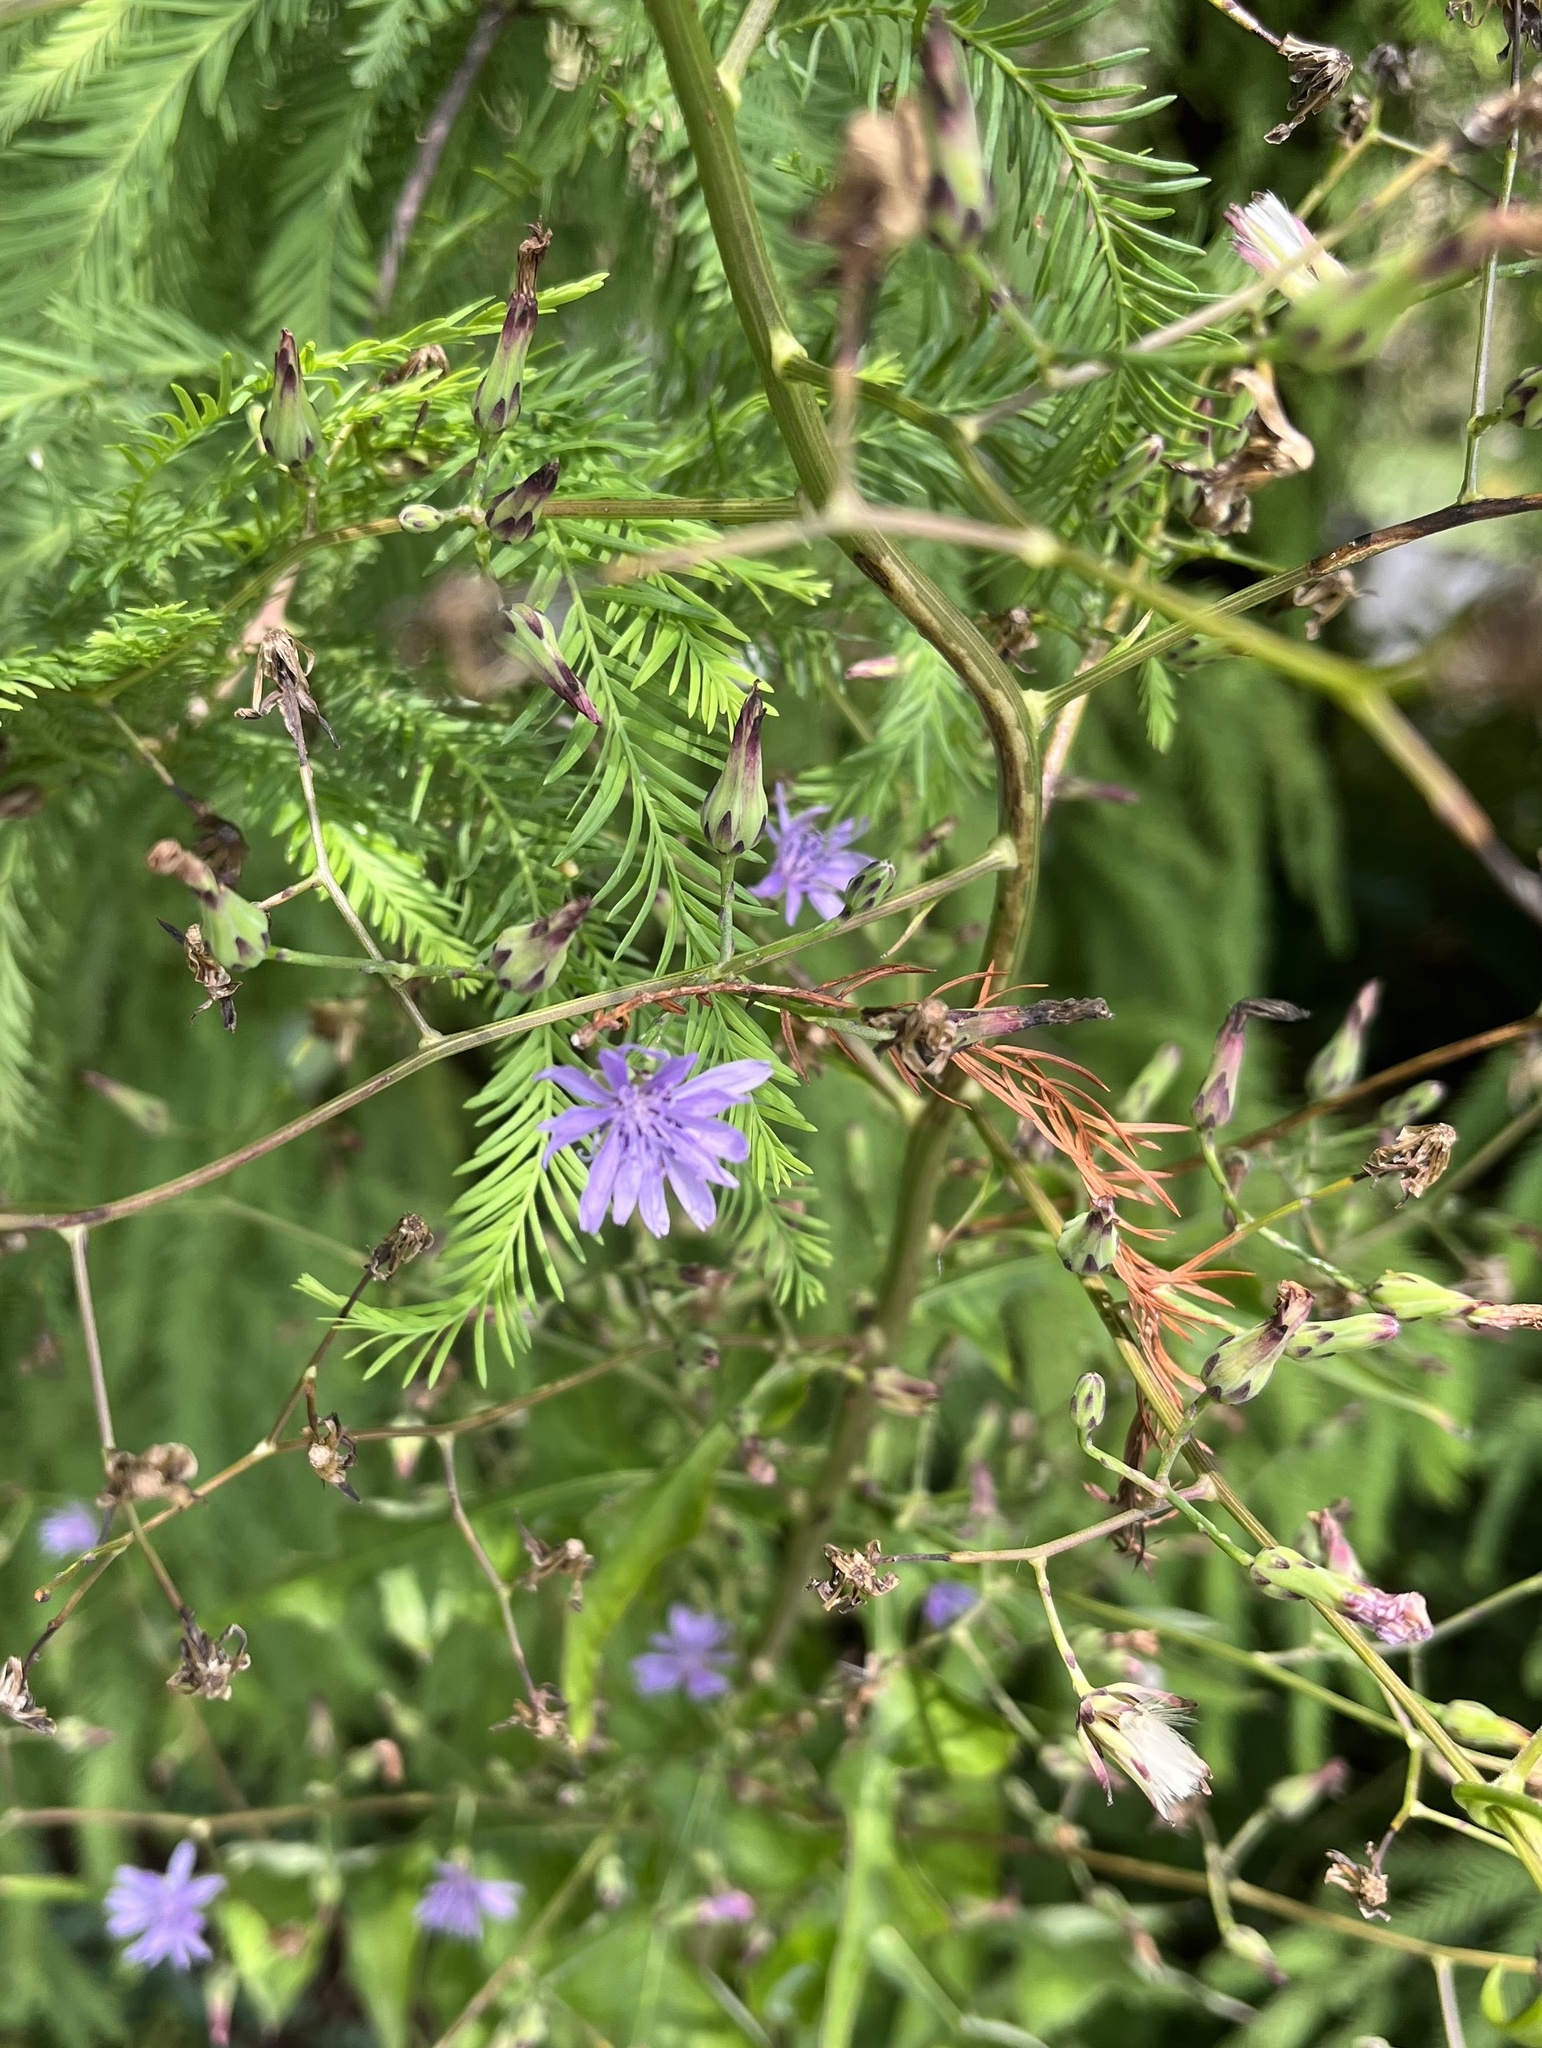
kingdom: Plantae
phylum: Tracheophyta
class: Magnoliopsida
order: Asterales
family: Asteraceae
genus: Lactuca
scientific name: Lactuca floridana
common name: Woodland lettuce
